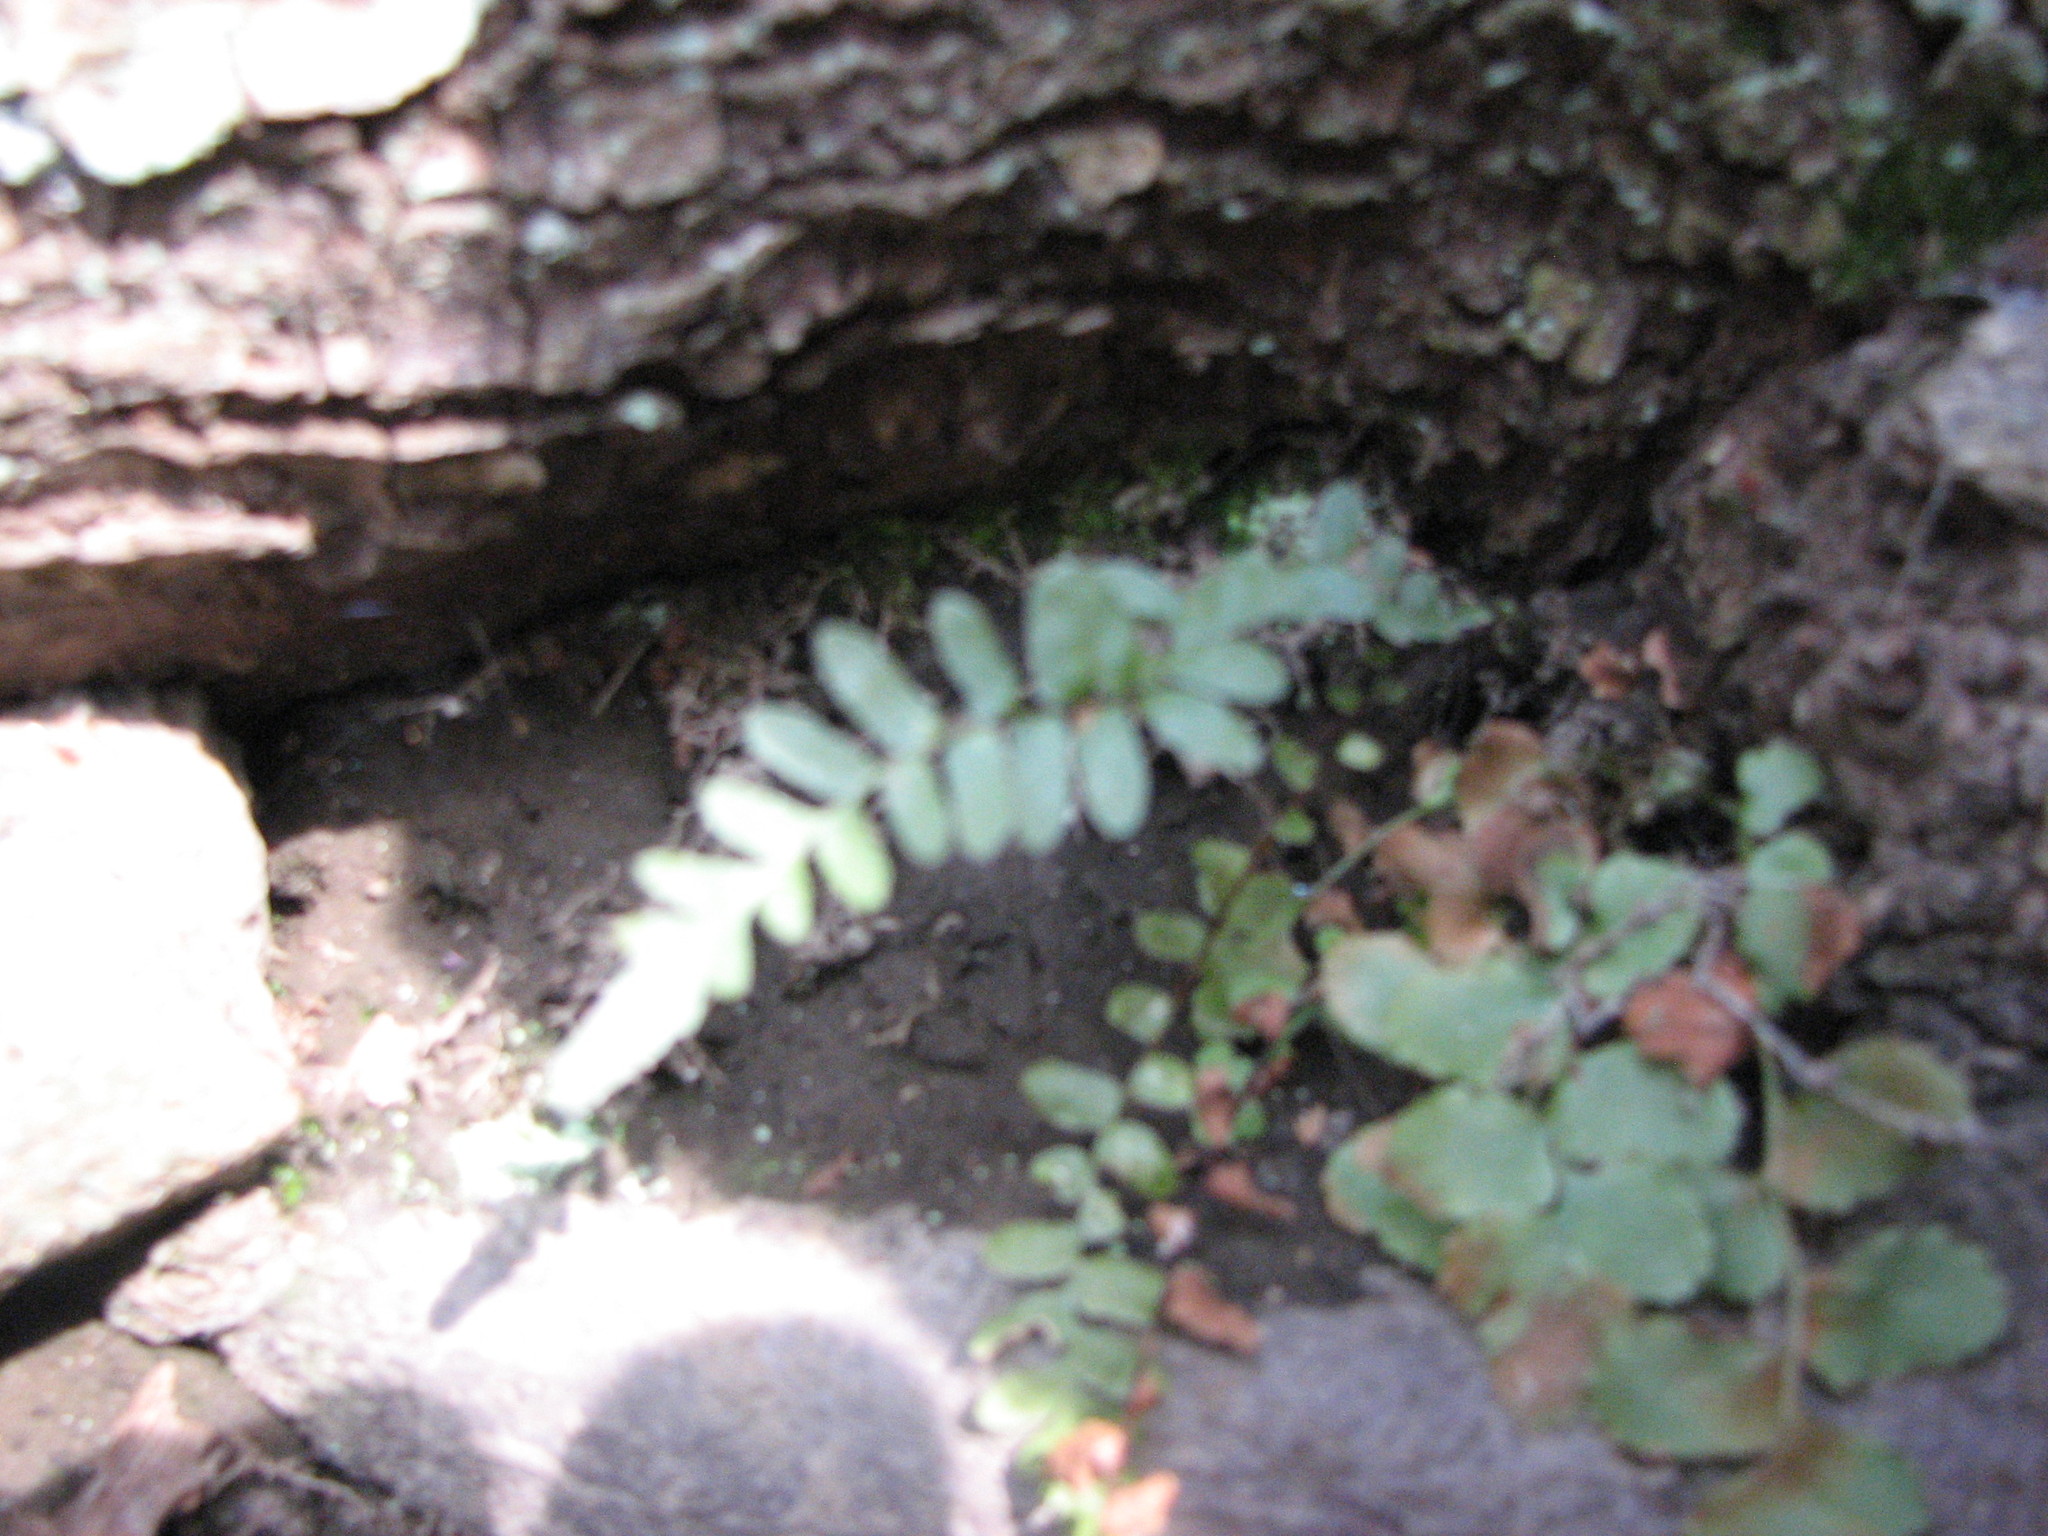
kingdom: Plantae
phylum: Tracheophyta
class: Polypodiopsida
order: Polypodiales
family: Dryopteridaceae
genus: Polystichum
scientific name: Polystichum acrostichoides
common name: Christmas fern
